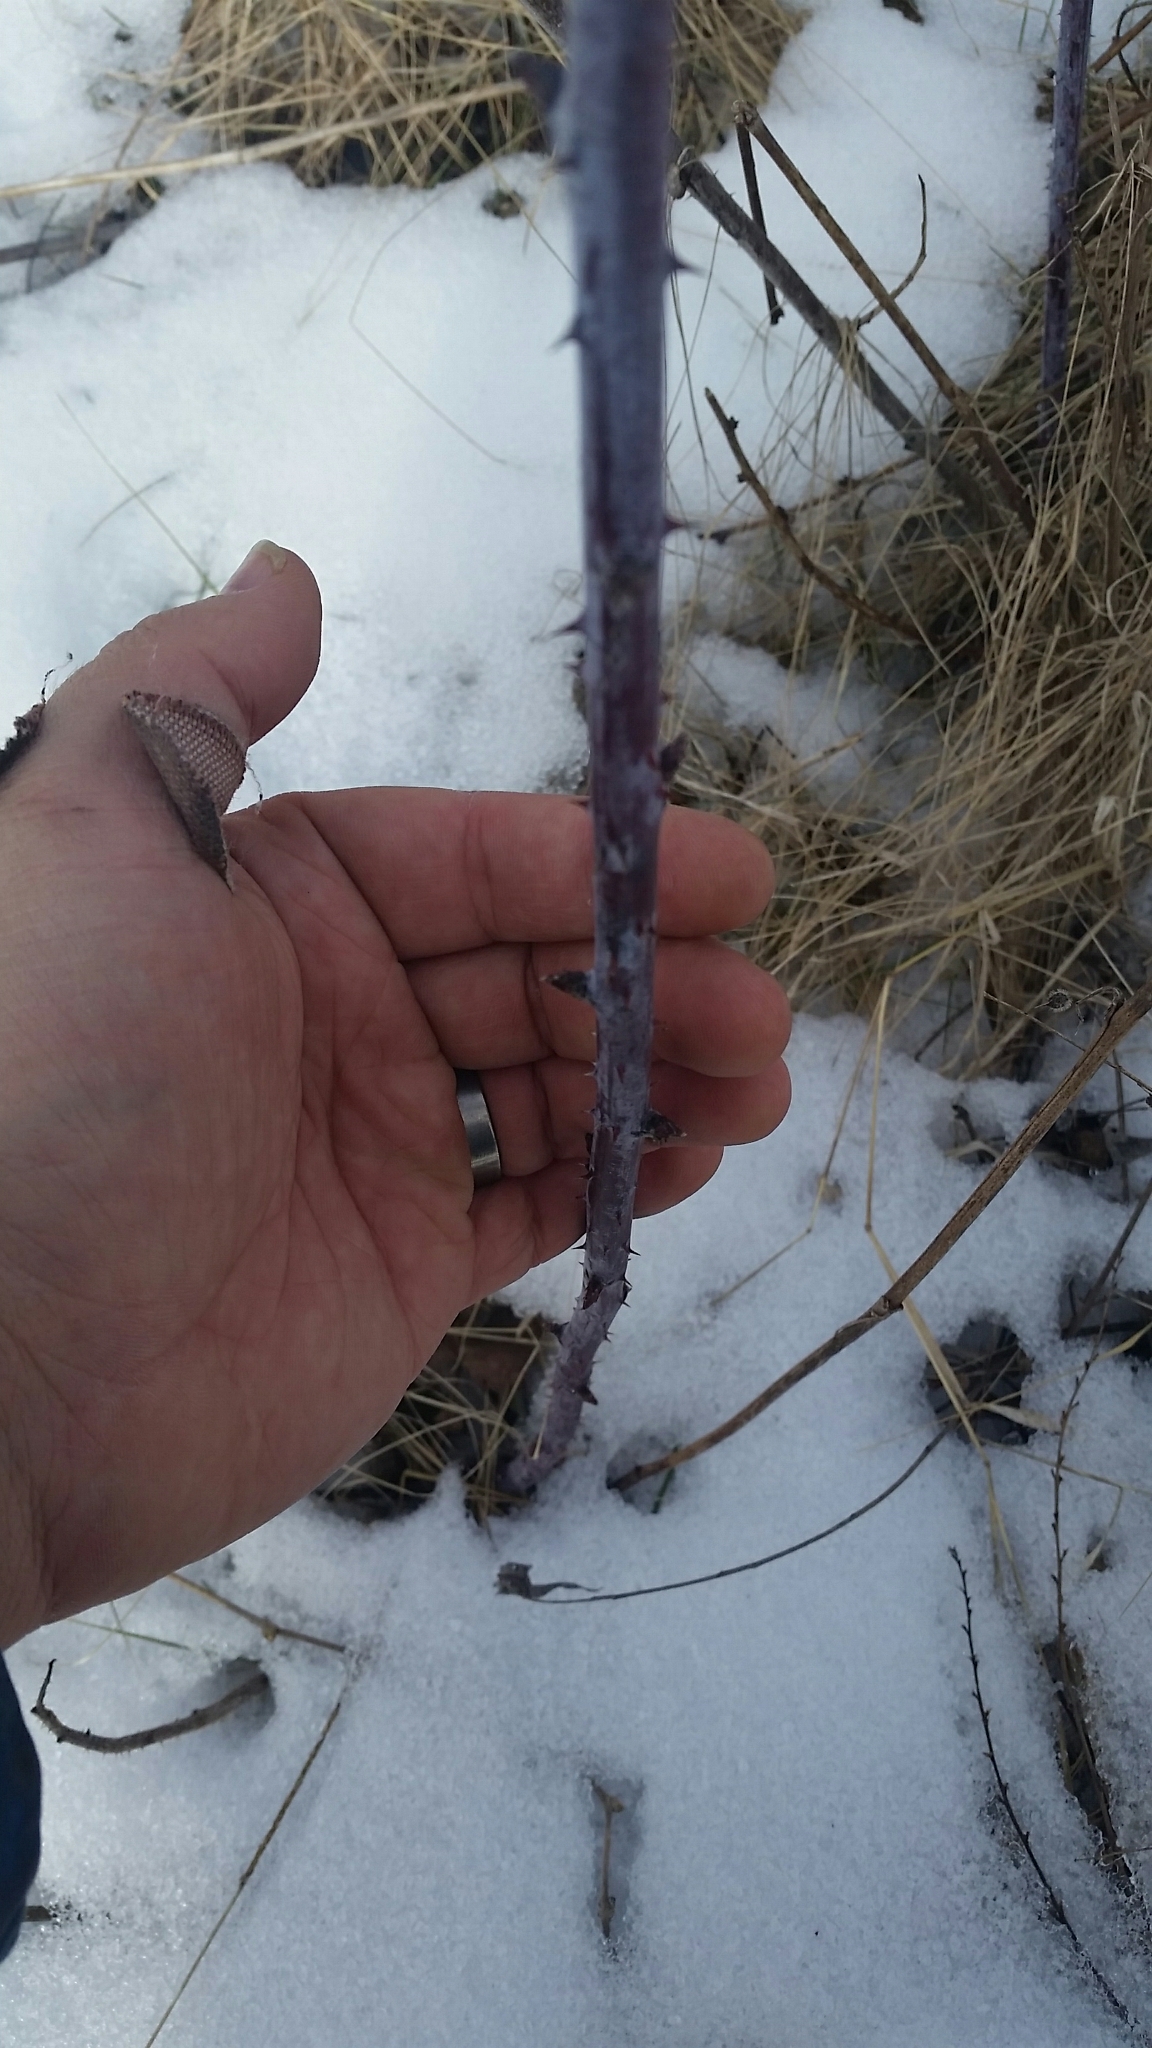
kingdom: Plantae
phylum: Tracheophyta
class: Magnoliopsida
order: Rosales
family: Rosaceae
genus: Rubus
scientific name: Rubus occidentalis
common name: Black raspberry
